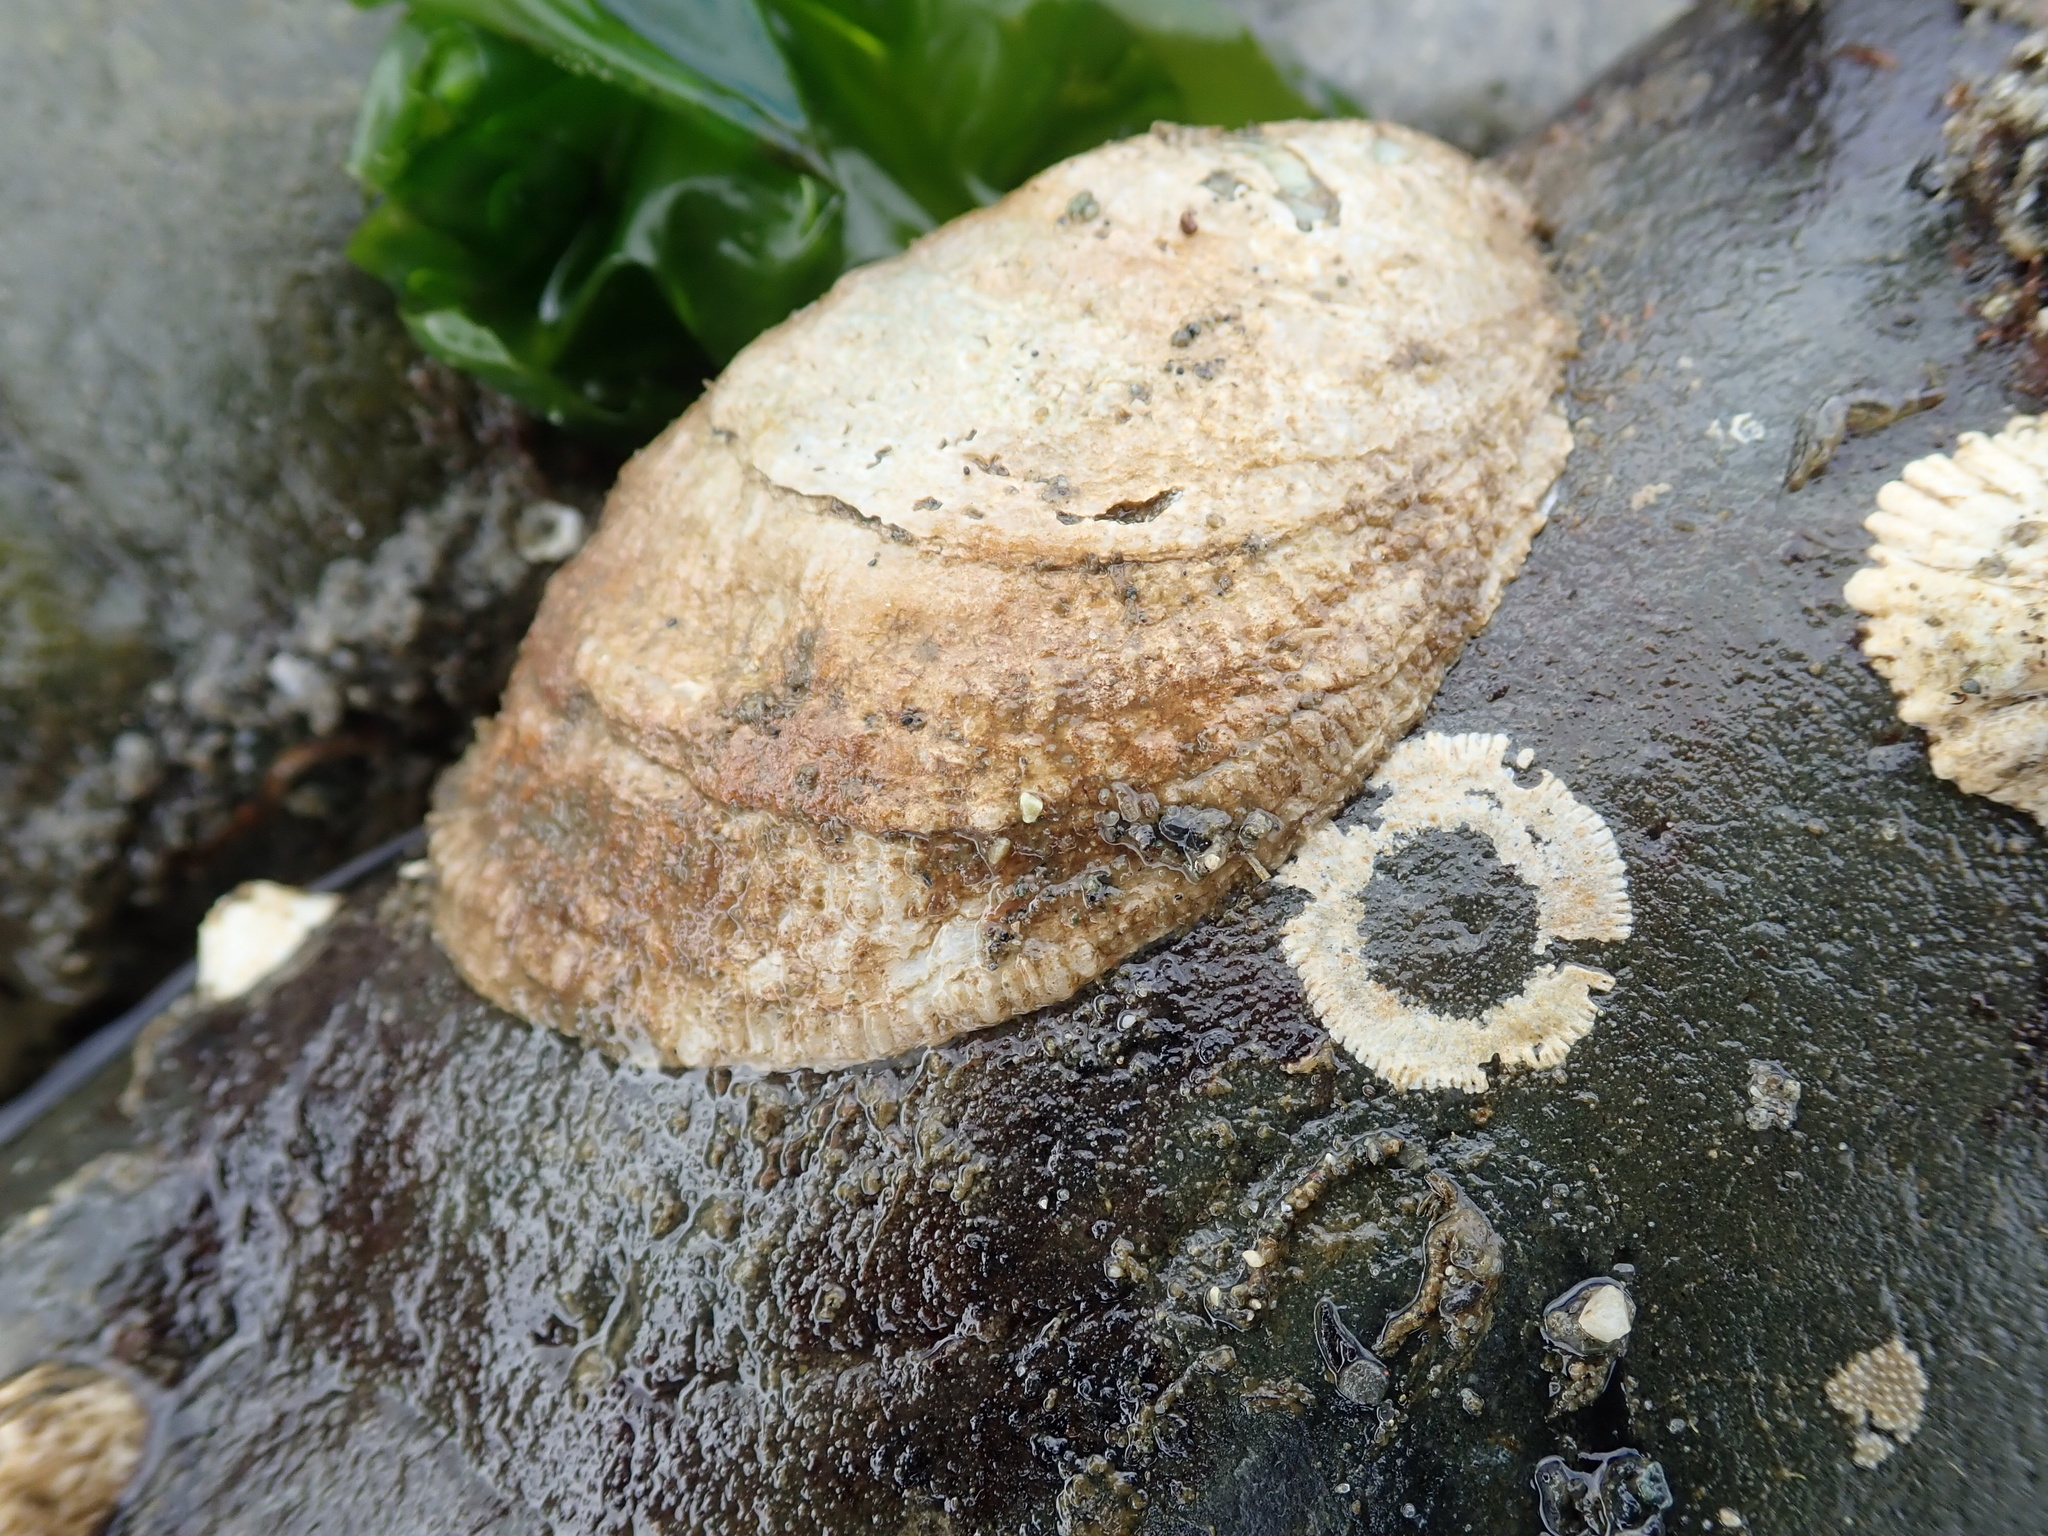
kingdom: Animalia
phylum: Mollusca
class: Bivalvia
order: Pectinida
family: Anomiidae
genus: Pododesmus
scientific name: Pododesmus macrochisma
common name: Alaska jingle
